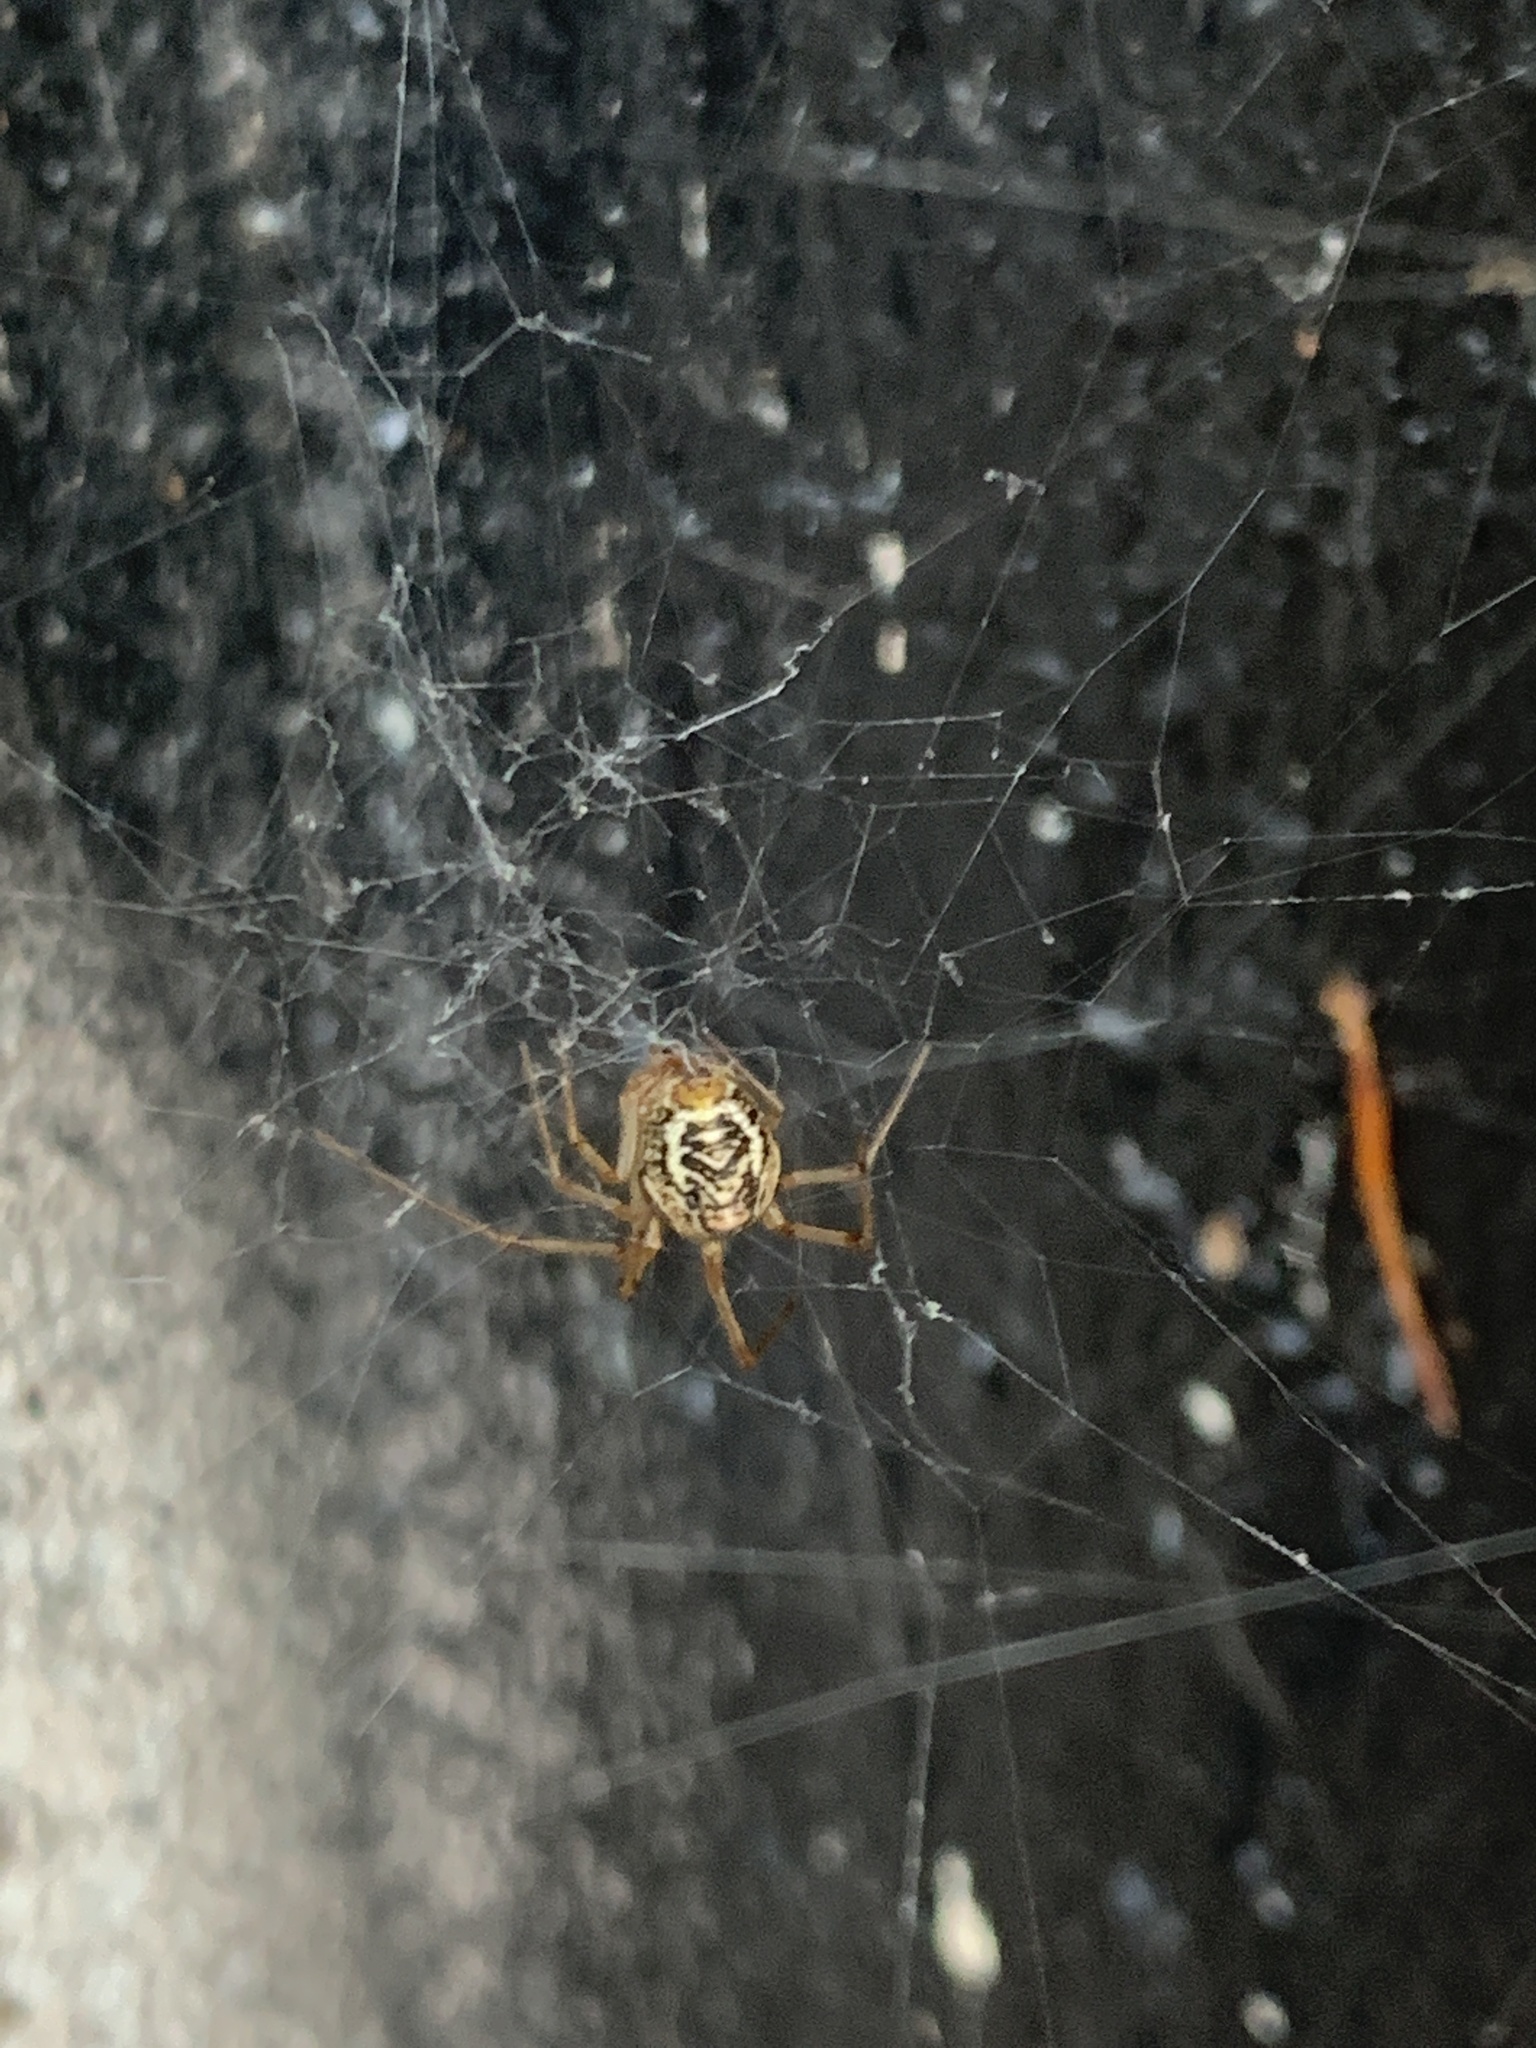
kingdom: Animalia
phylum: Arthropoda
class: Arachnida
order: Araneae
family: Theridiidae
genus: Parasteatoda
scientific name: Parasteatoda tepidariorum
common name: Common house spider
